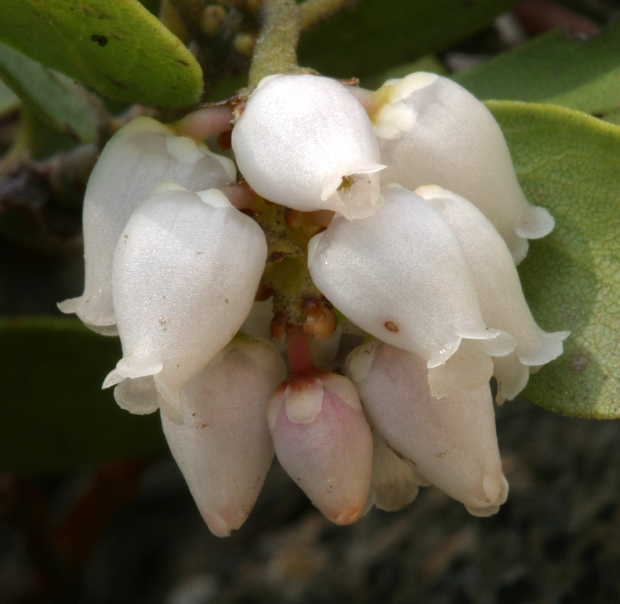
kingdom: Plantae
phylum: Tracheophyta
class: Magnoliopsida
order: Ericales
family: Ericaceae
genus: Arctostaphylos
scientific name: Arctostaphylos nevadensis
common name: Pinemat manzanita
